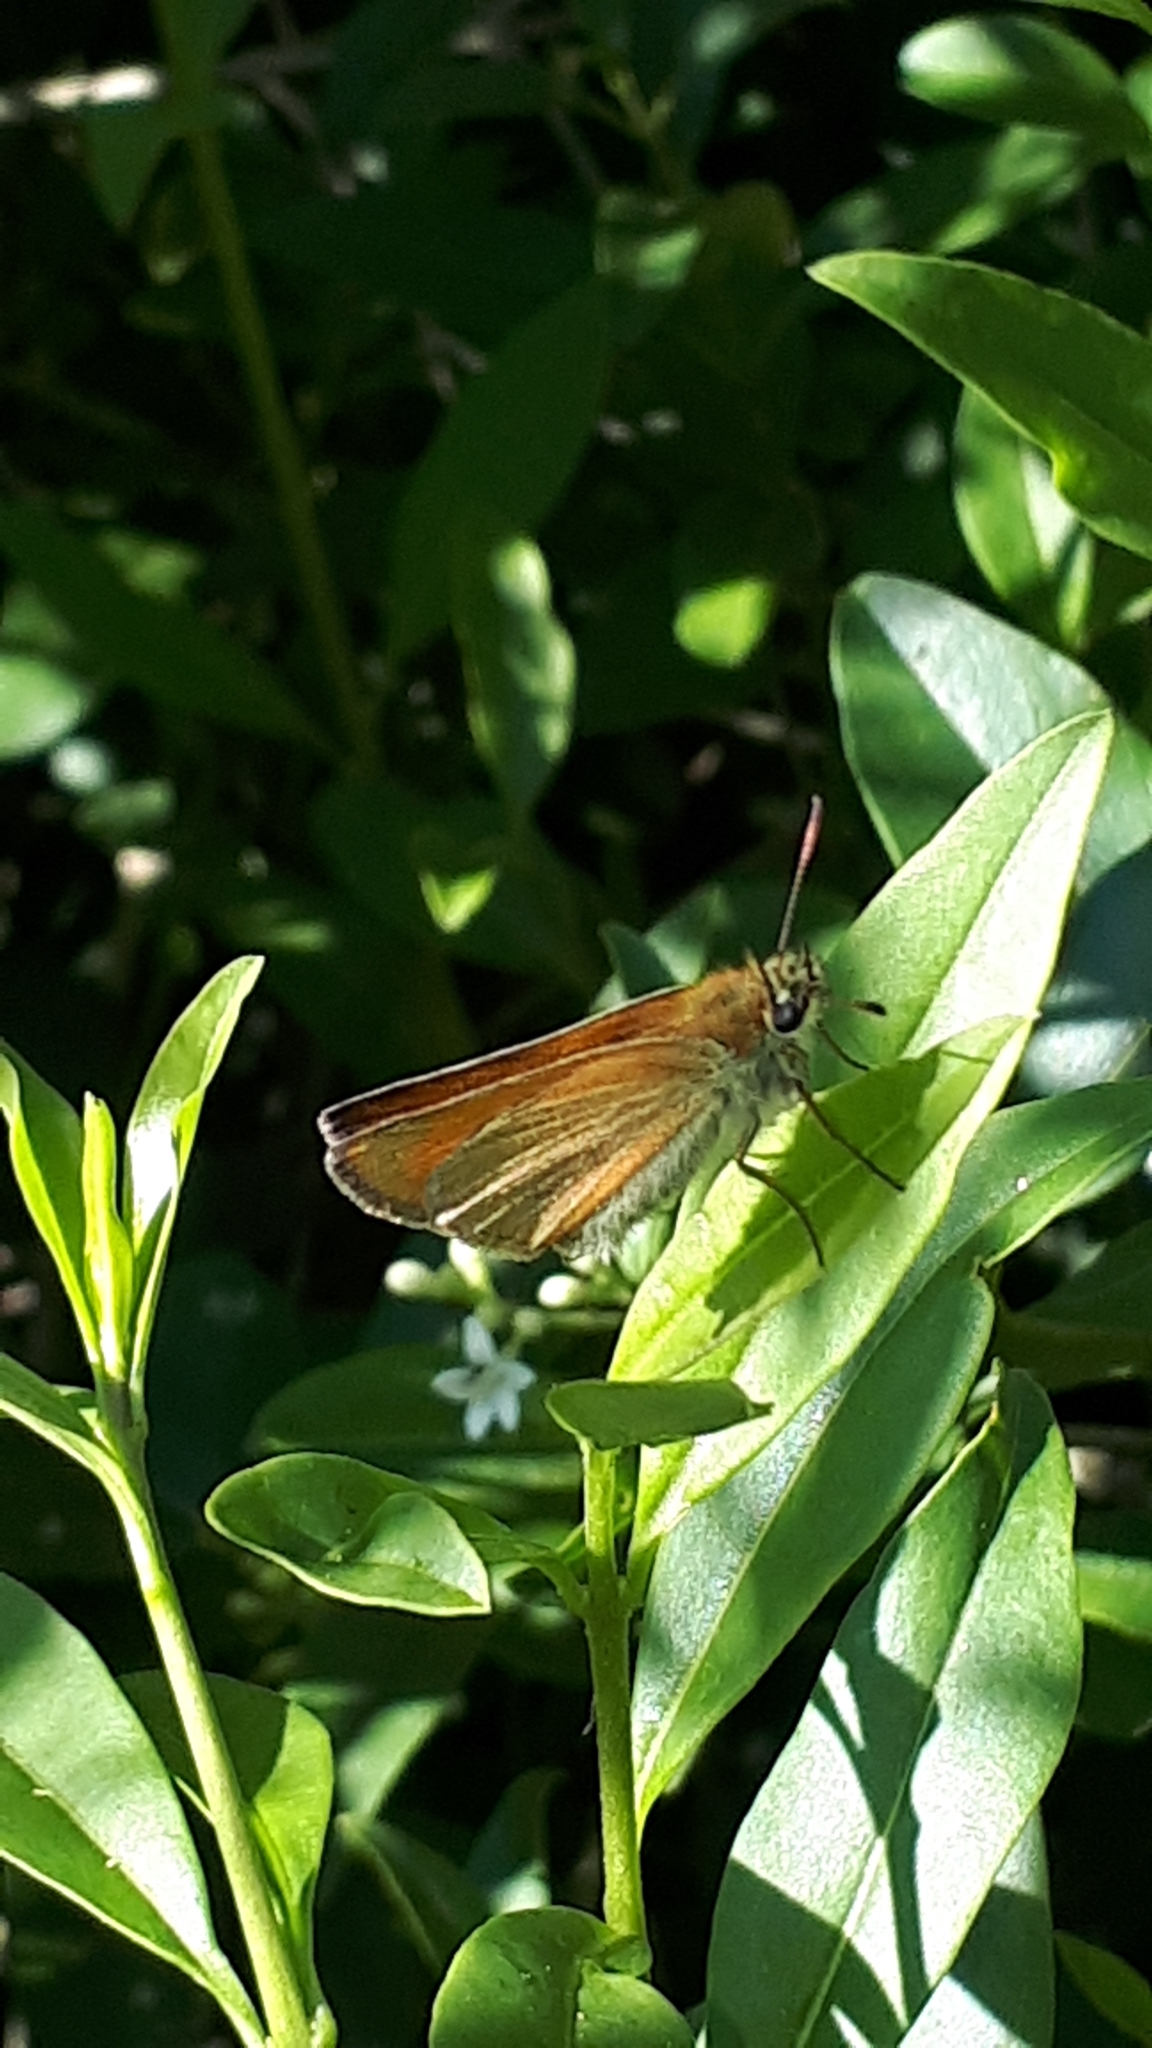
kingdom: Animalia
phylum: Arthropoda
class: Insecta
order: Lepidoptera
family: Hesperiidae
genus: Thymelicus
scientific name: Thymelicus lineola
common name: Essex skipper
